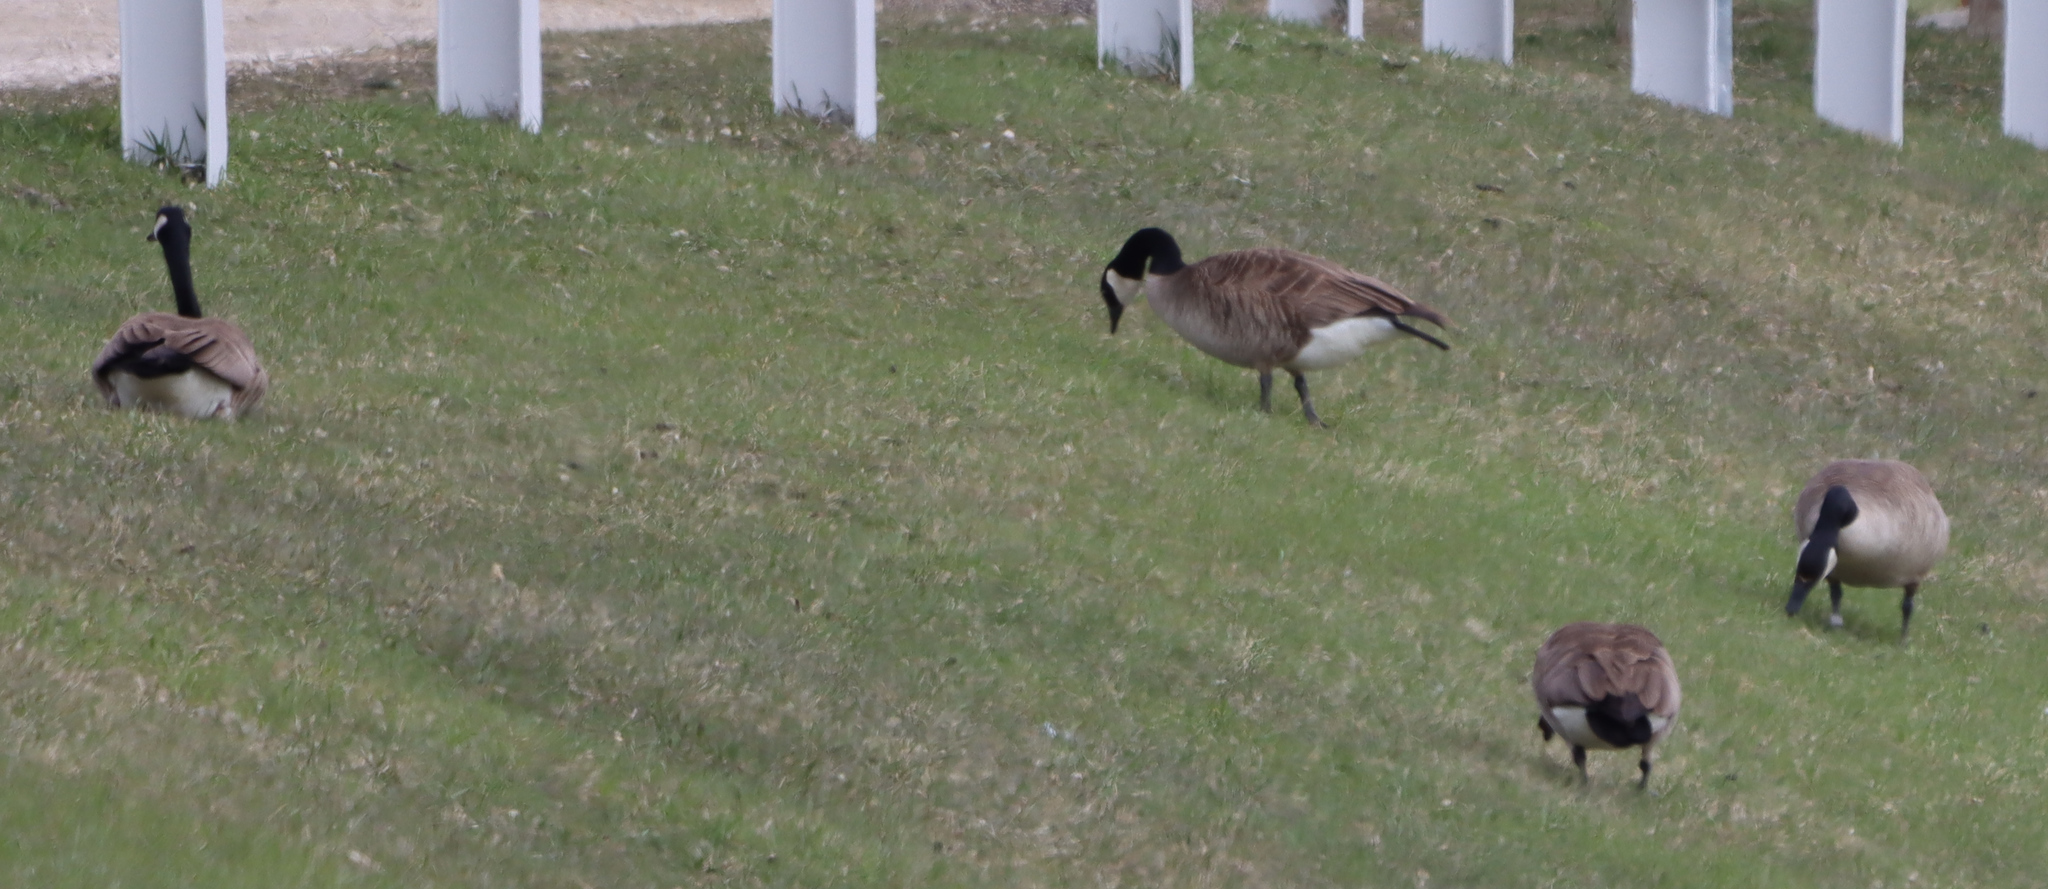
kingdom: Animalia
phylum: Chordata
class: Aves
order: Anseriformes
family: Anatidae
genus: Branta
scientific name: Branta canadensis
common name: Canada goose
